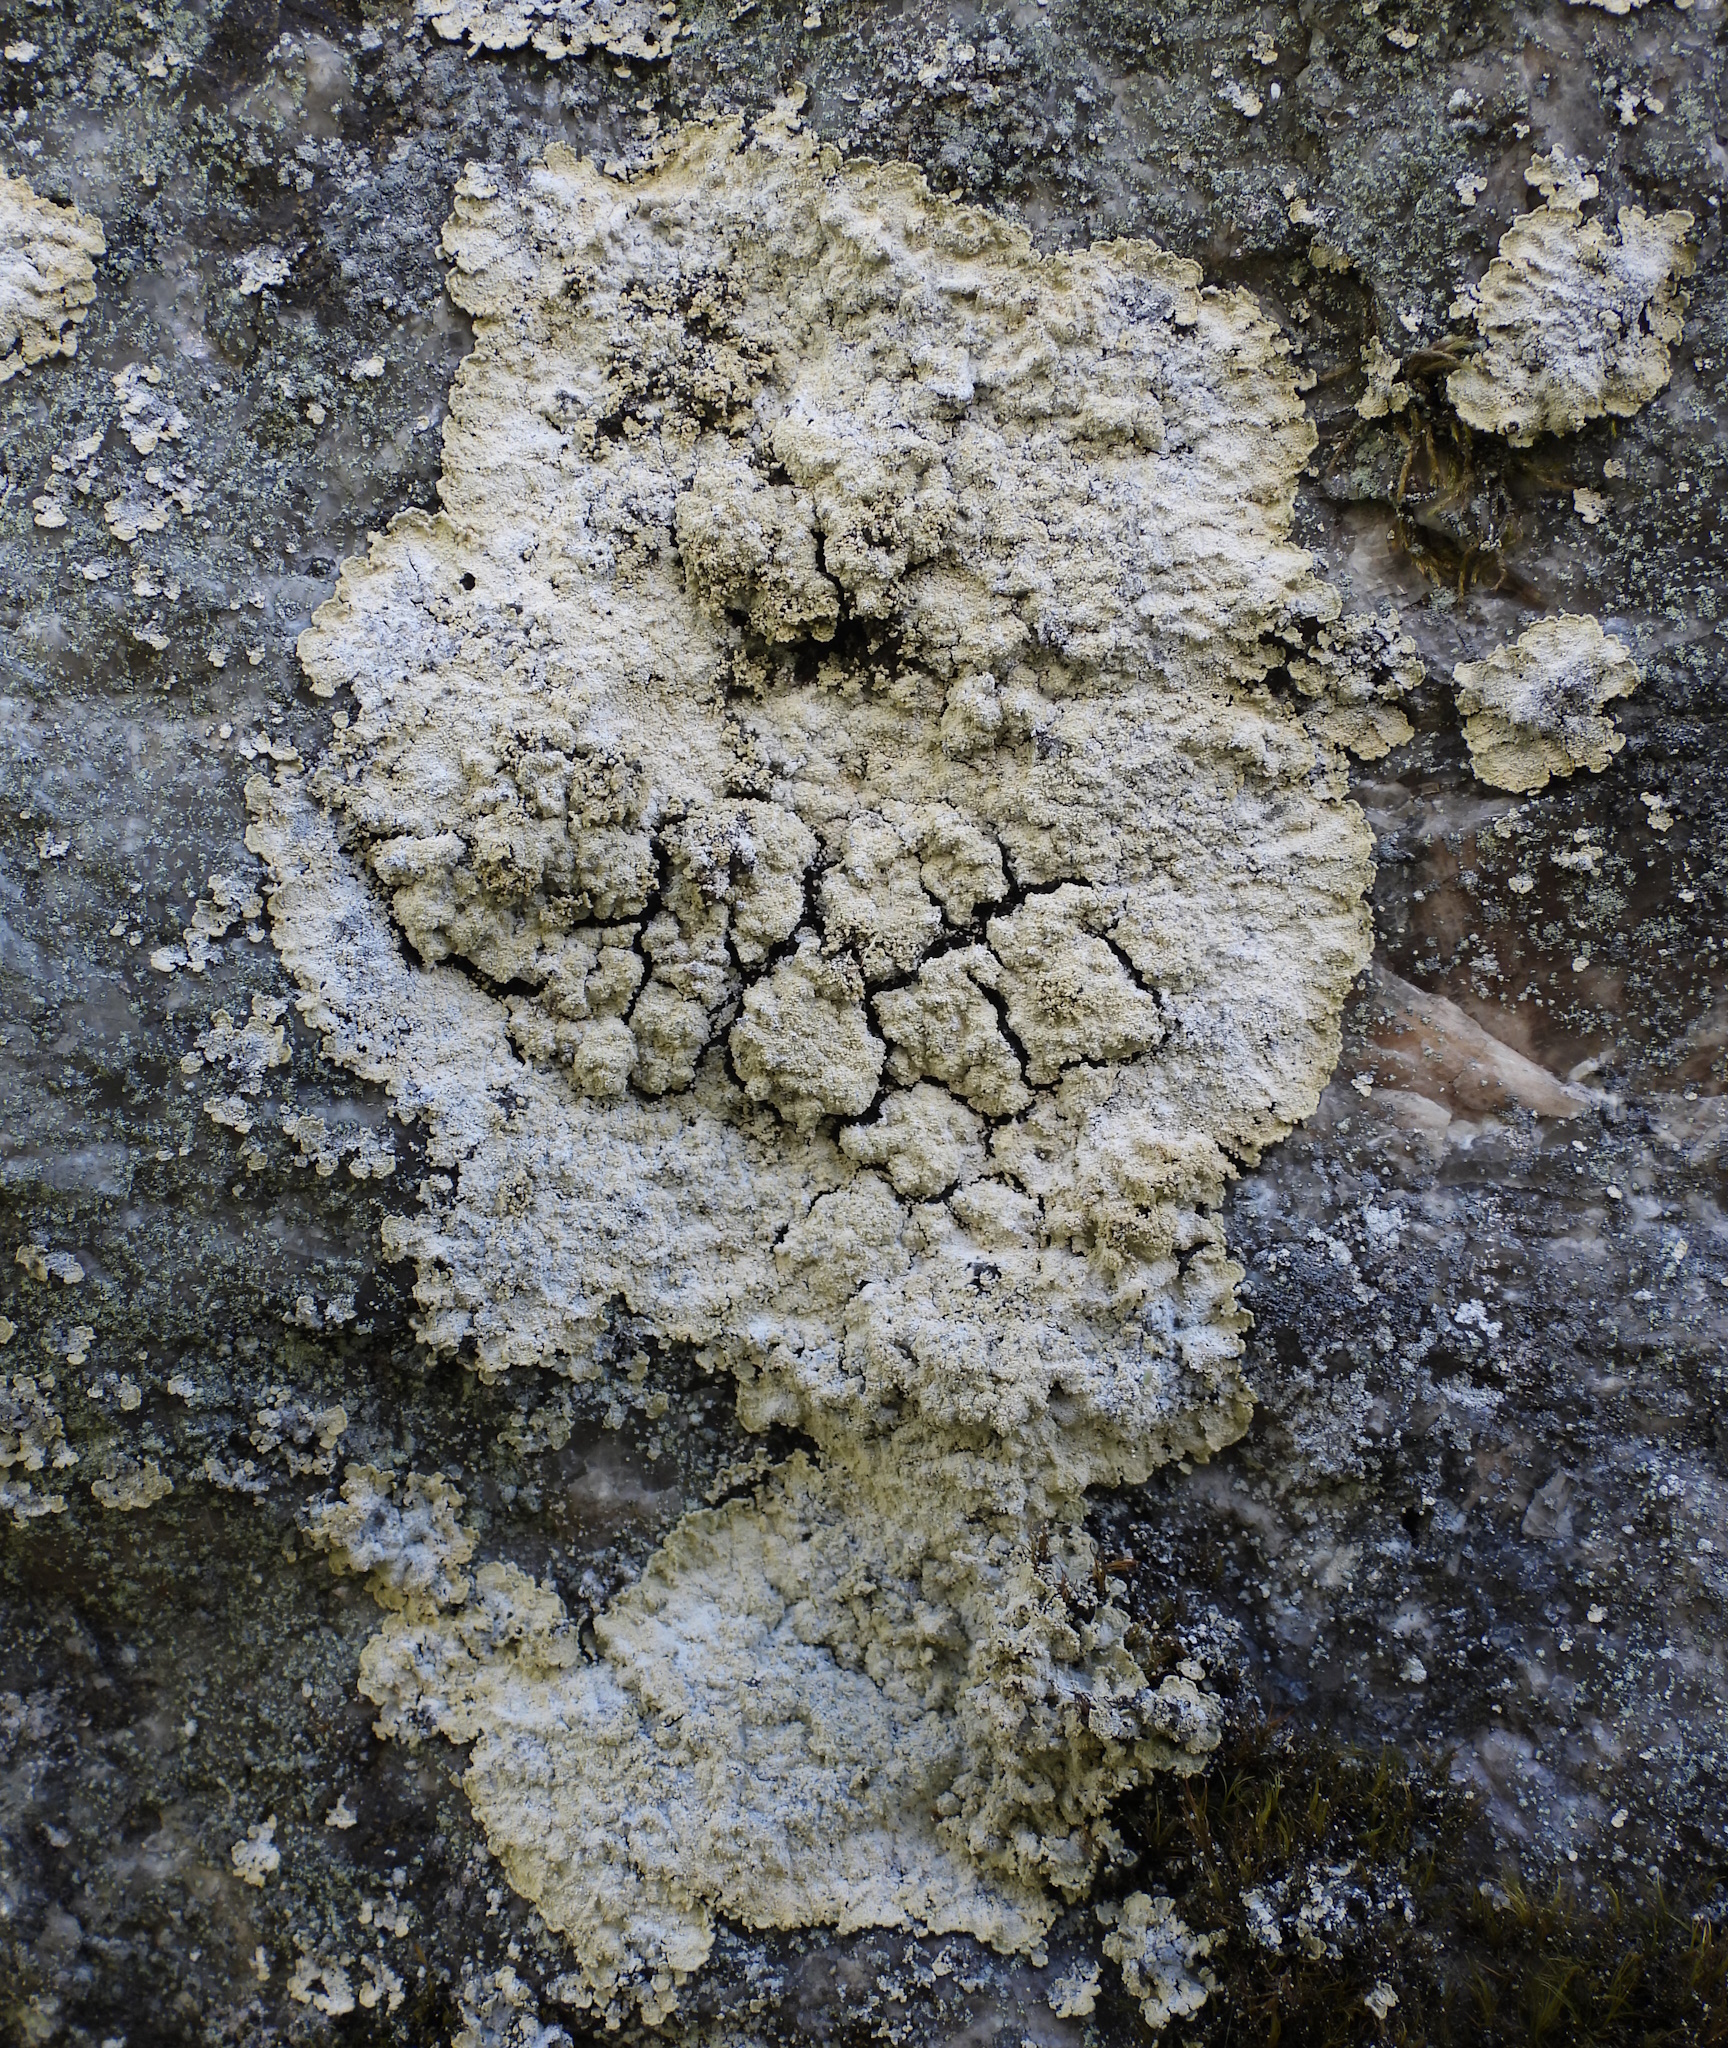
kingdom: Fungi
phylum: Ascomycota
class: Lecanoromycetes
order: Lecanorales
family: Stereocaulaceae
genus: Lepraria
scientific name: Lepraria membranacea
